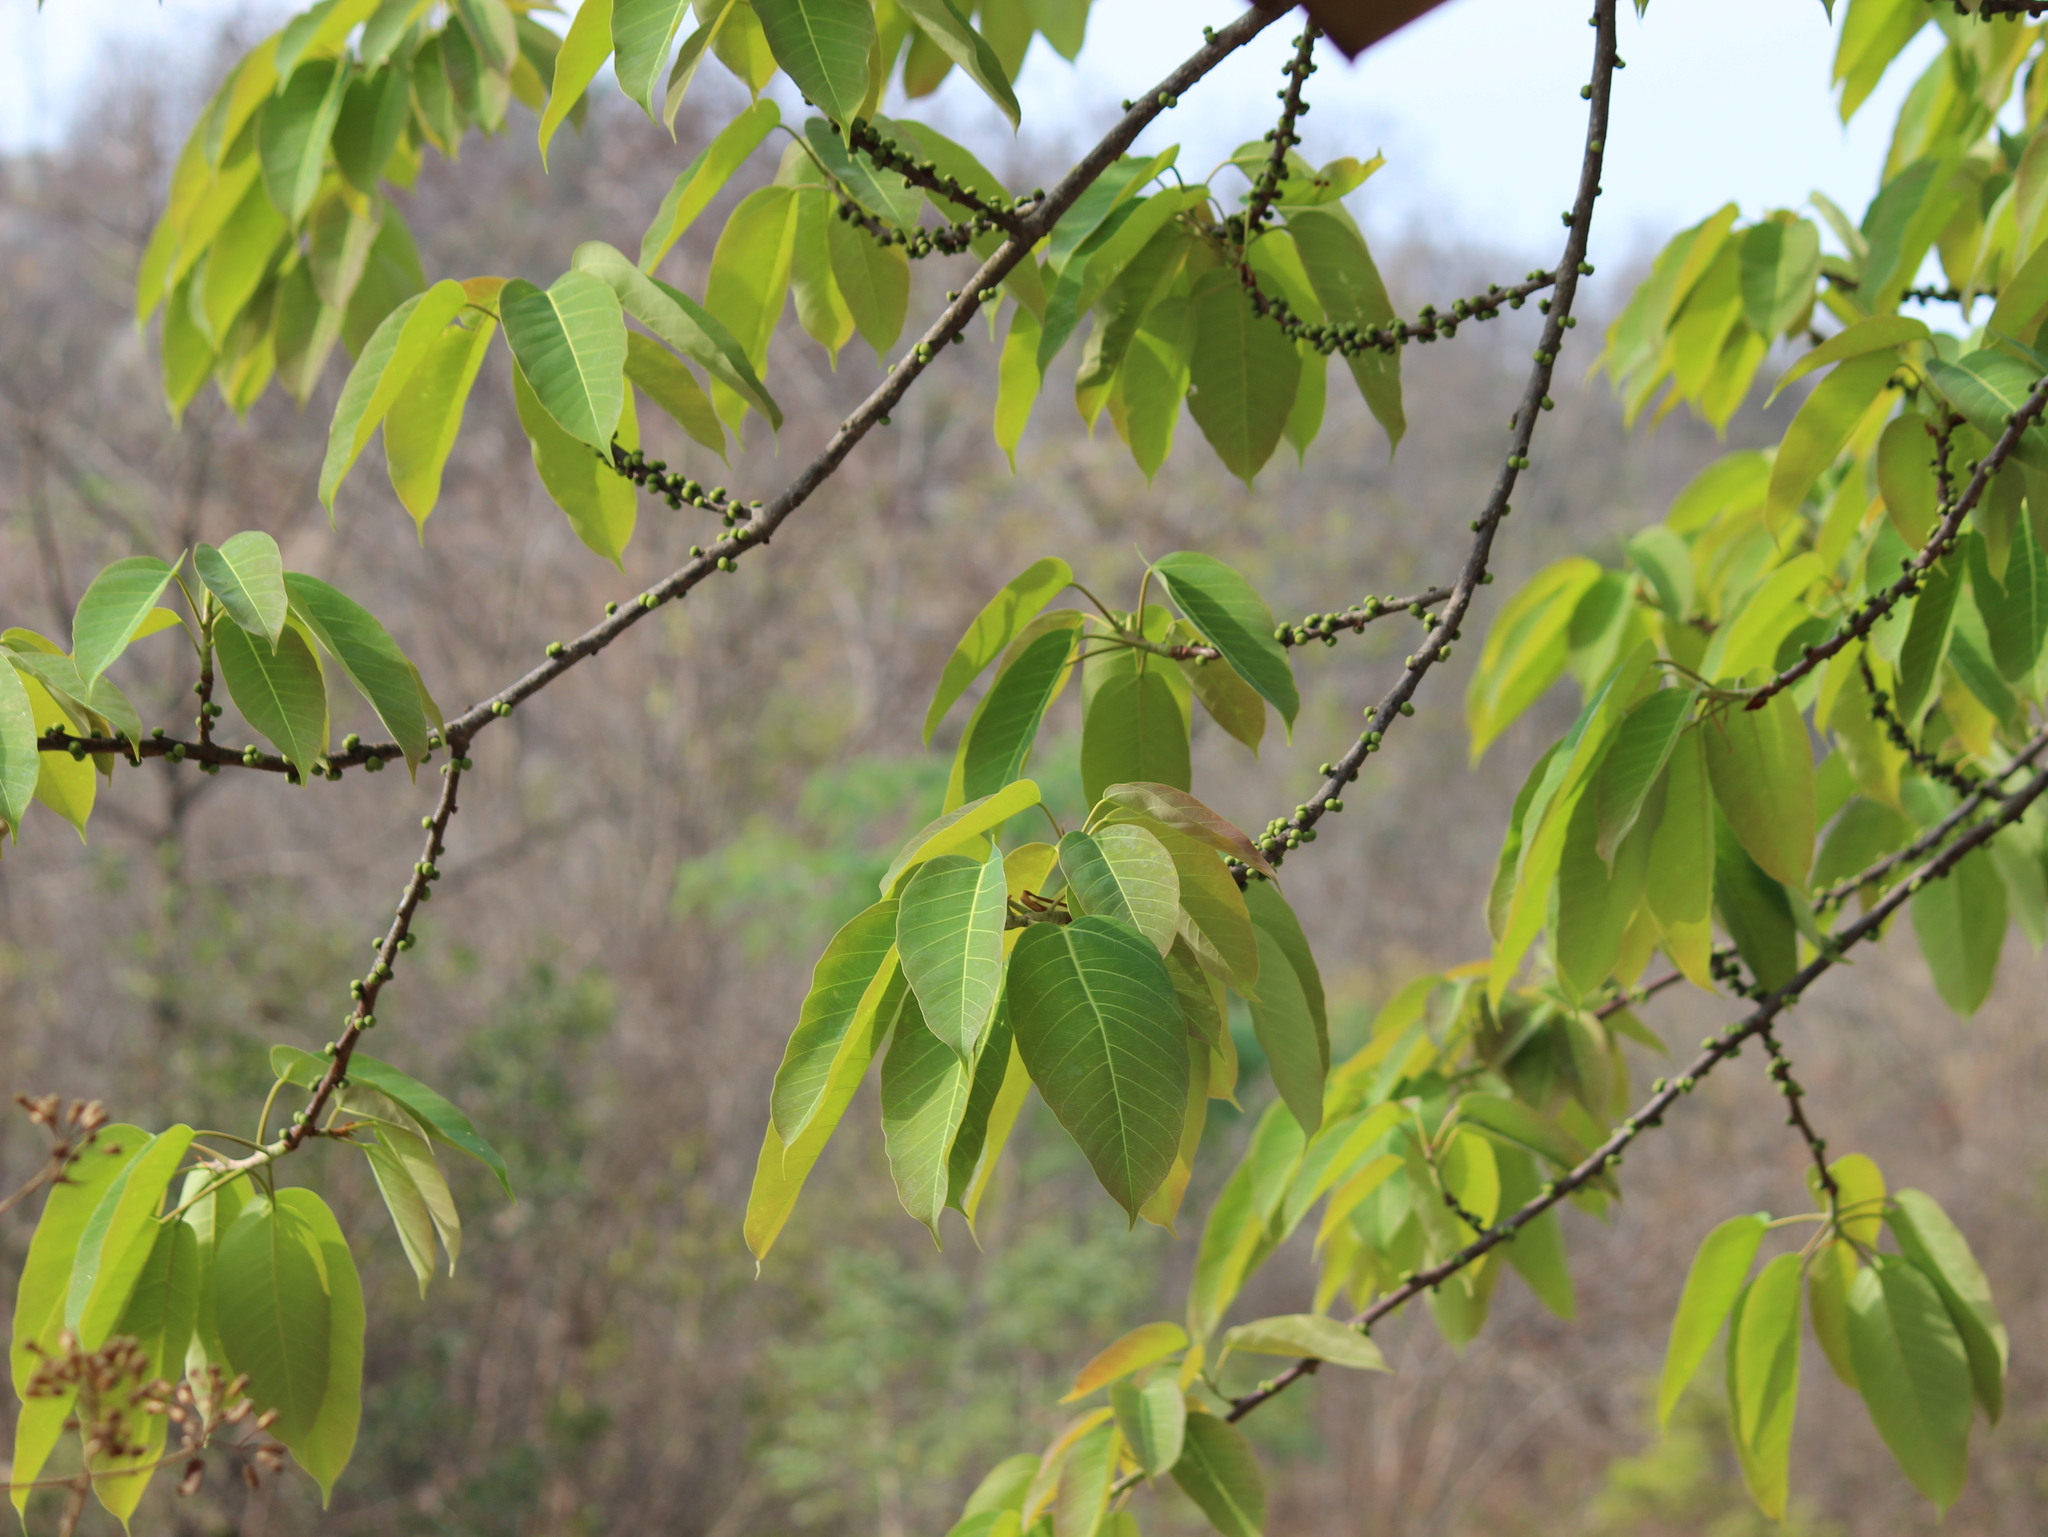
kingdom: Plantae
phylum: Tracheophyta
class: Magnoliopsida
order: Rosales
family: Moraceae
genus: Ficus
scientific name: Ficus tsjakela
